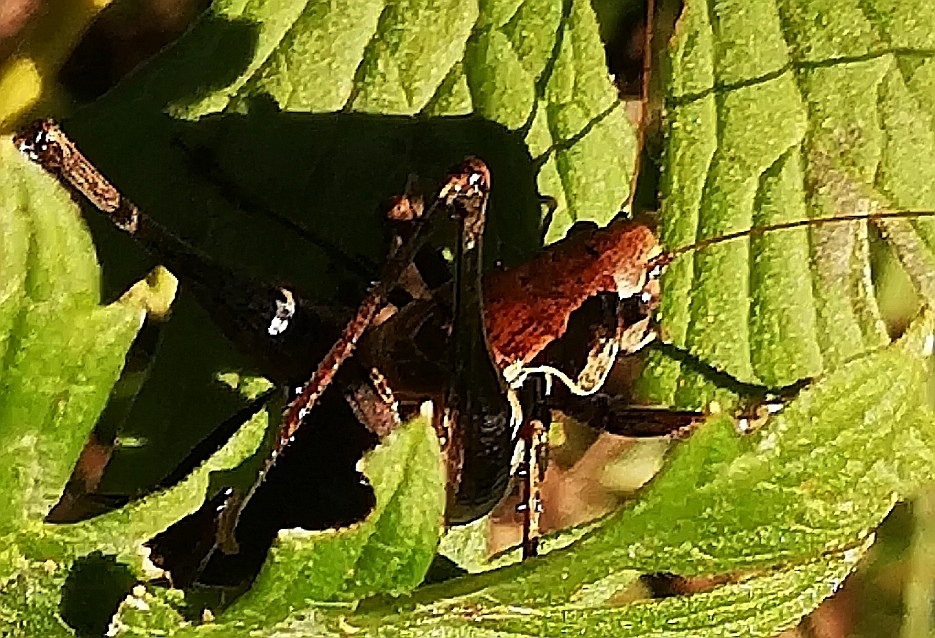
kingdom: Animalia
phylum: Arthropoda
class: Insecta
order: Orthoptera
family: Tettigoniidae
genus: Pholidoptera
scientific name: Pholidoptera griseoaptera
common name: Dark bush-cricket
